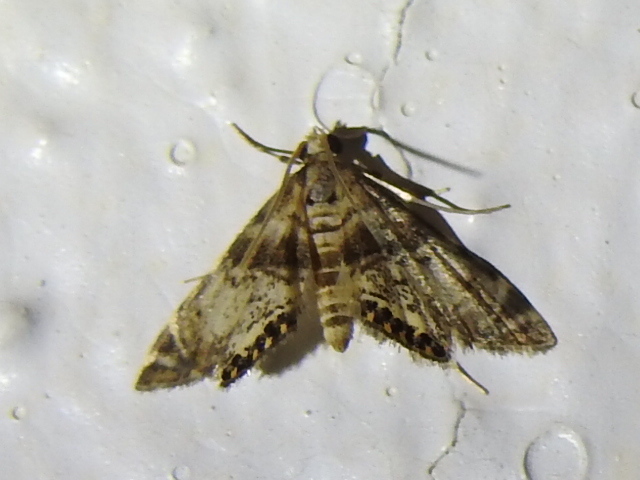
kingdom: Animalia
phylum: Arthropoda
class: Insecta
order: Lepidoptera
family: Crambidae
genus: Elophila
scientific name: Elophila obliteralis
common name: Waterlily leafcutter moth
